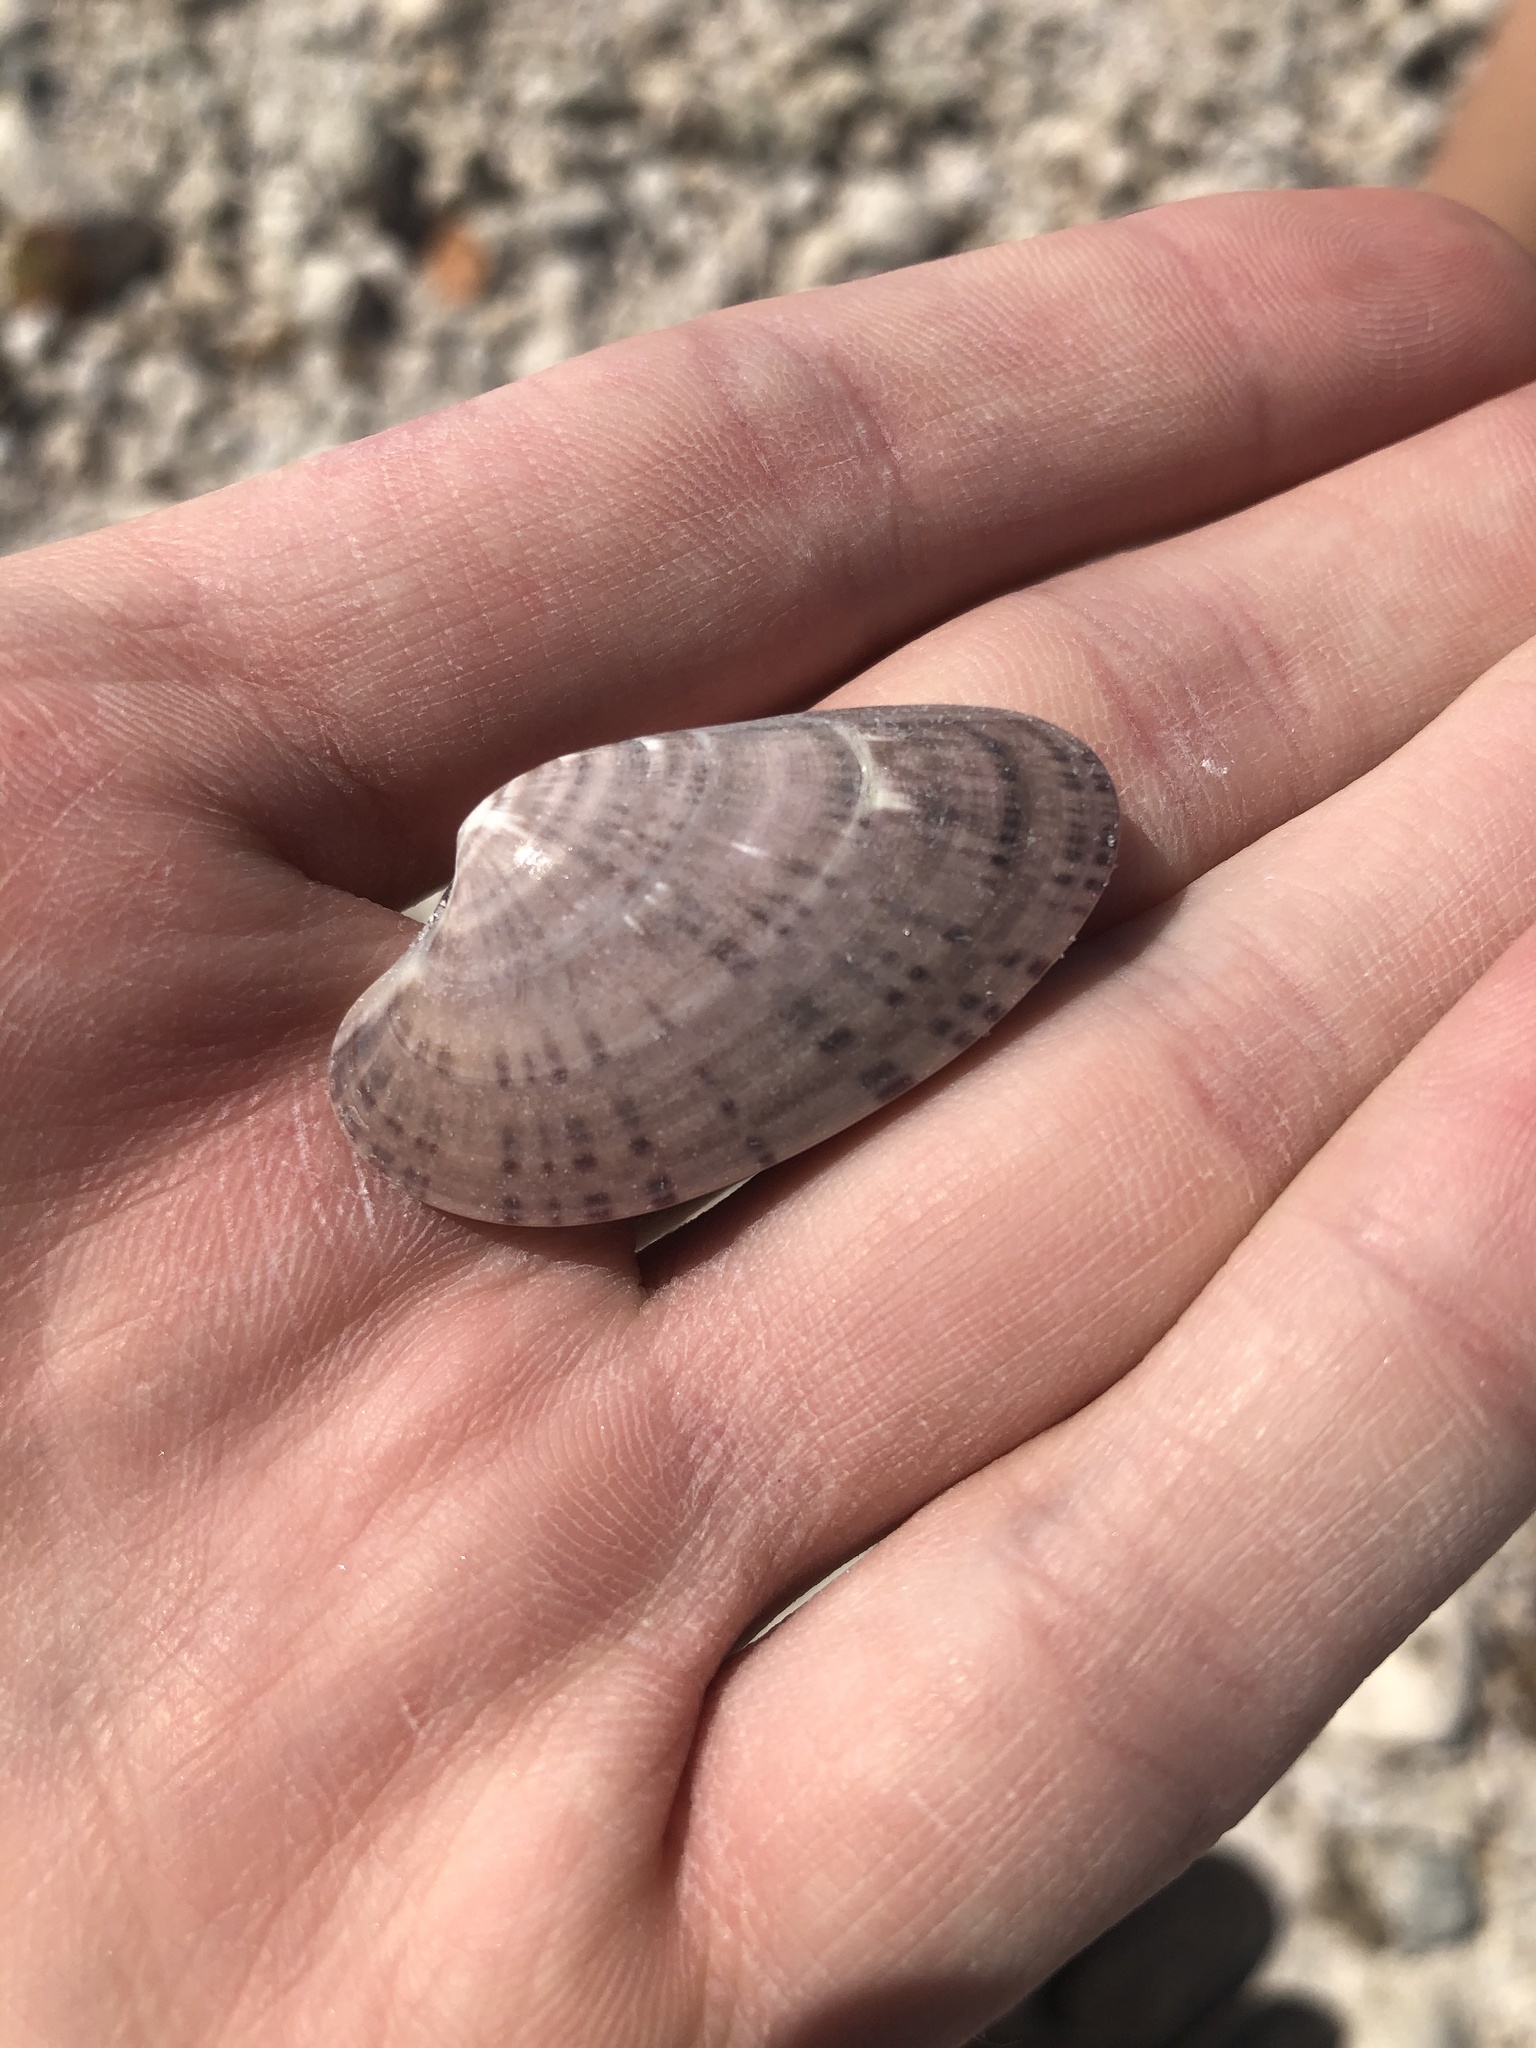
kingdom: Animalia
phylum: Mollusca
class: Bivalvia
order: Venerida
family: Veneridae
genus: Macrocallista
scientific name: Macrocallista nimbosa
